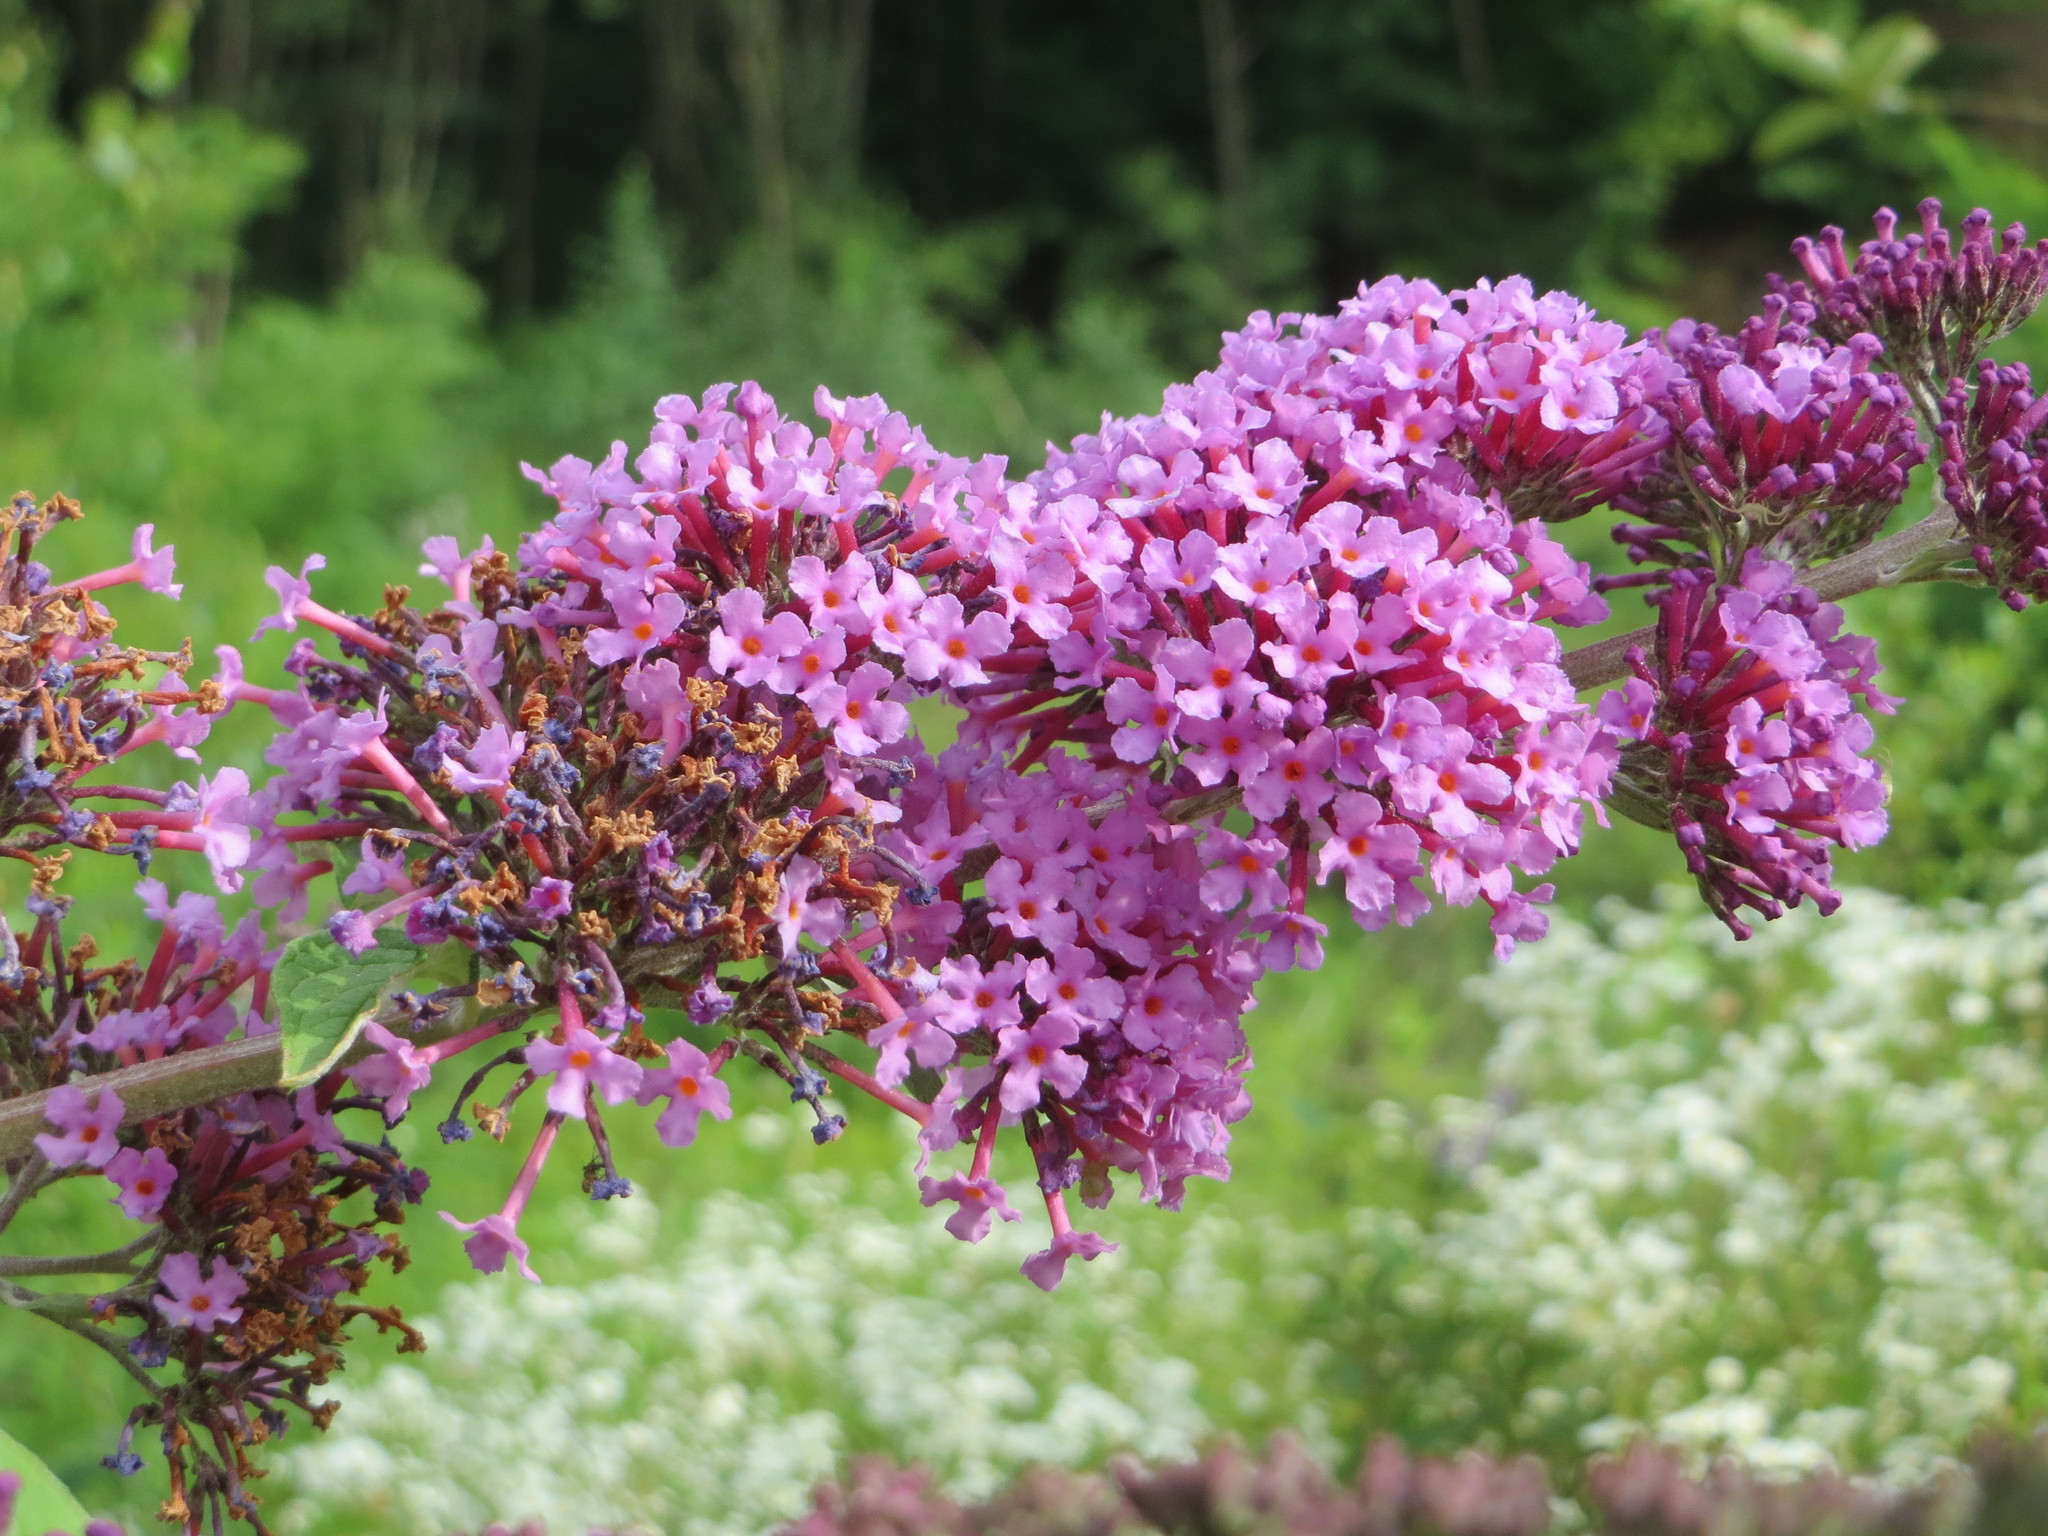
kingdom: Plantae
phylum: Tracheophyta
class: Magnoliopsida
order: Lamiales
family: Scrophulariaceae
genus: Buddleja
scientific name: Buddleja davidii
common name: Butterfly-bush
